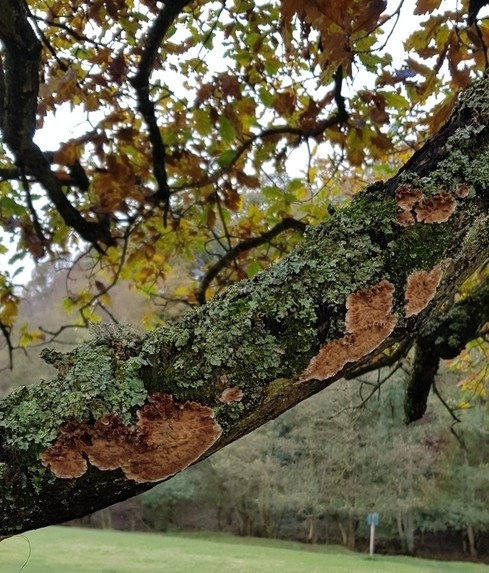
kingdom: Fungi
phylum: Basidiomycota
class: Agaricomycetes
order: Russulales
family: Stereaceae
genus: Stereum
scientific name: Stereum gausapatum
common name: Bleeding oak crust
